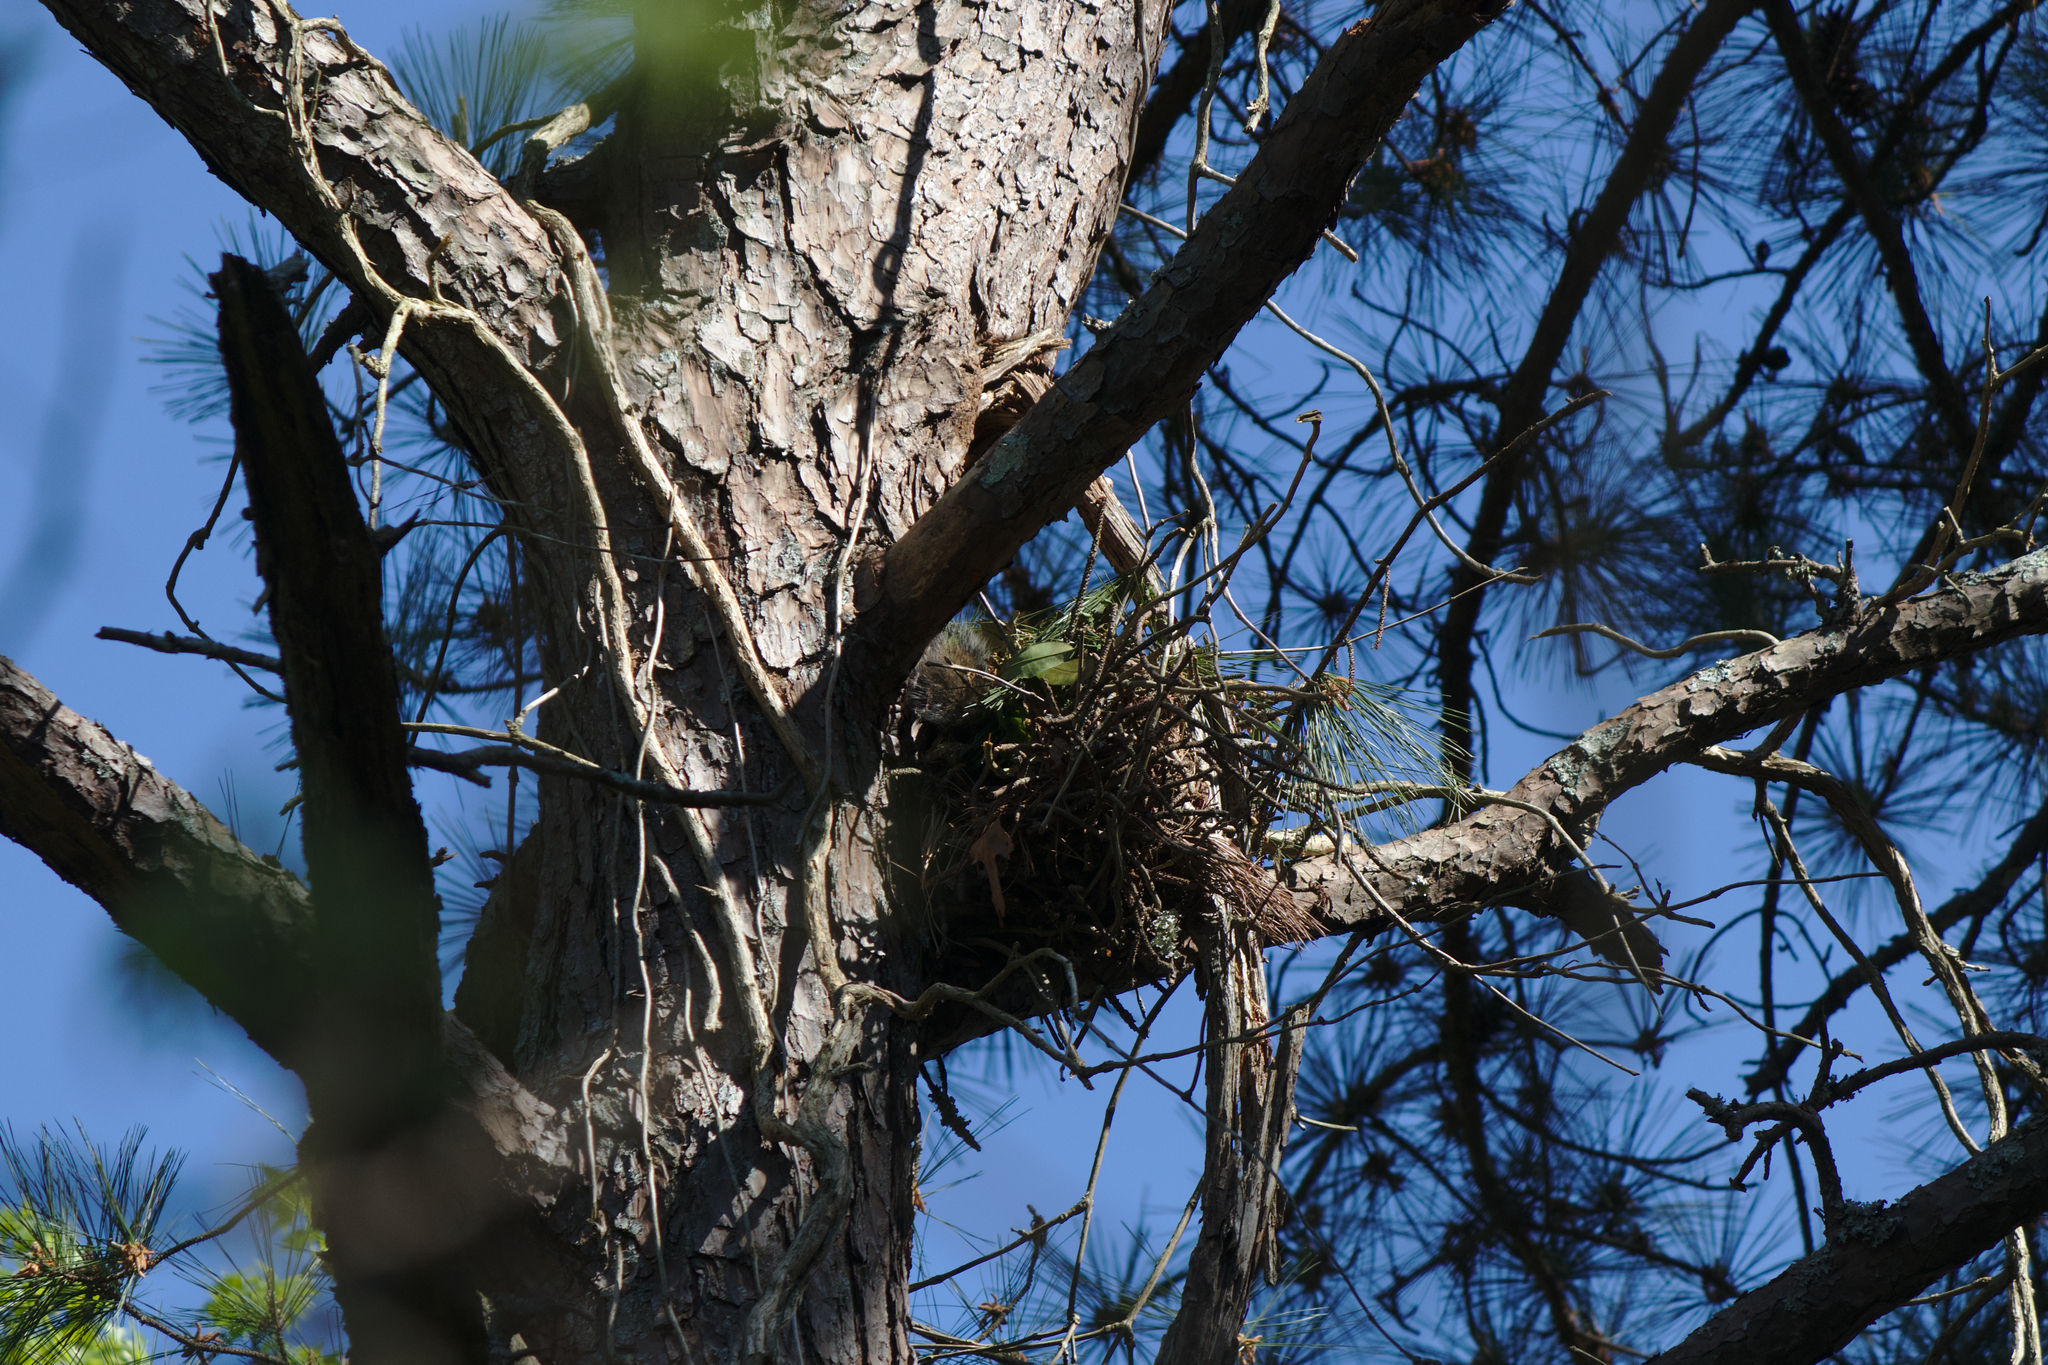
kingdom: Animalia
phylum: Chordata
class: Mammalia
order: Rodentia
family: Sciuridae
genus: Sciurus
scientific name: Sciurus carolinensis
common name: Eastern gray squirrel
